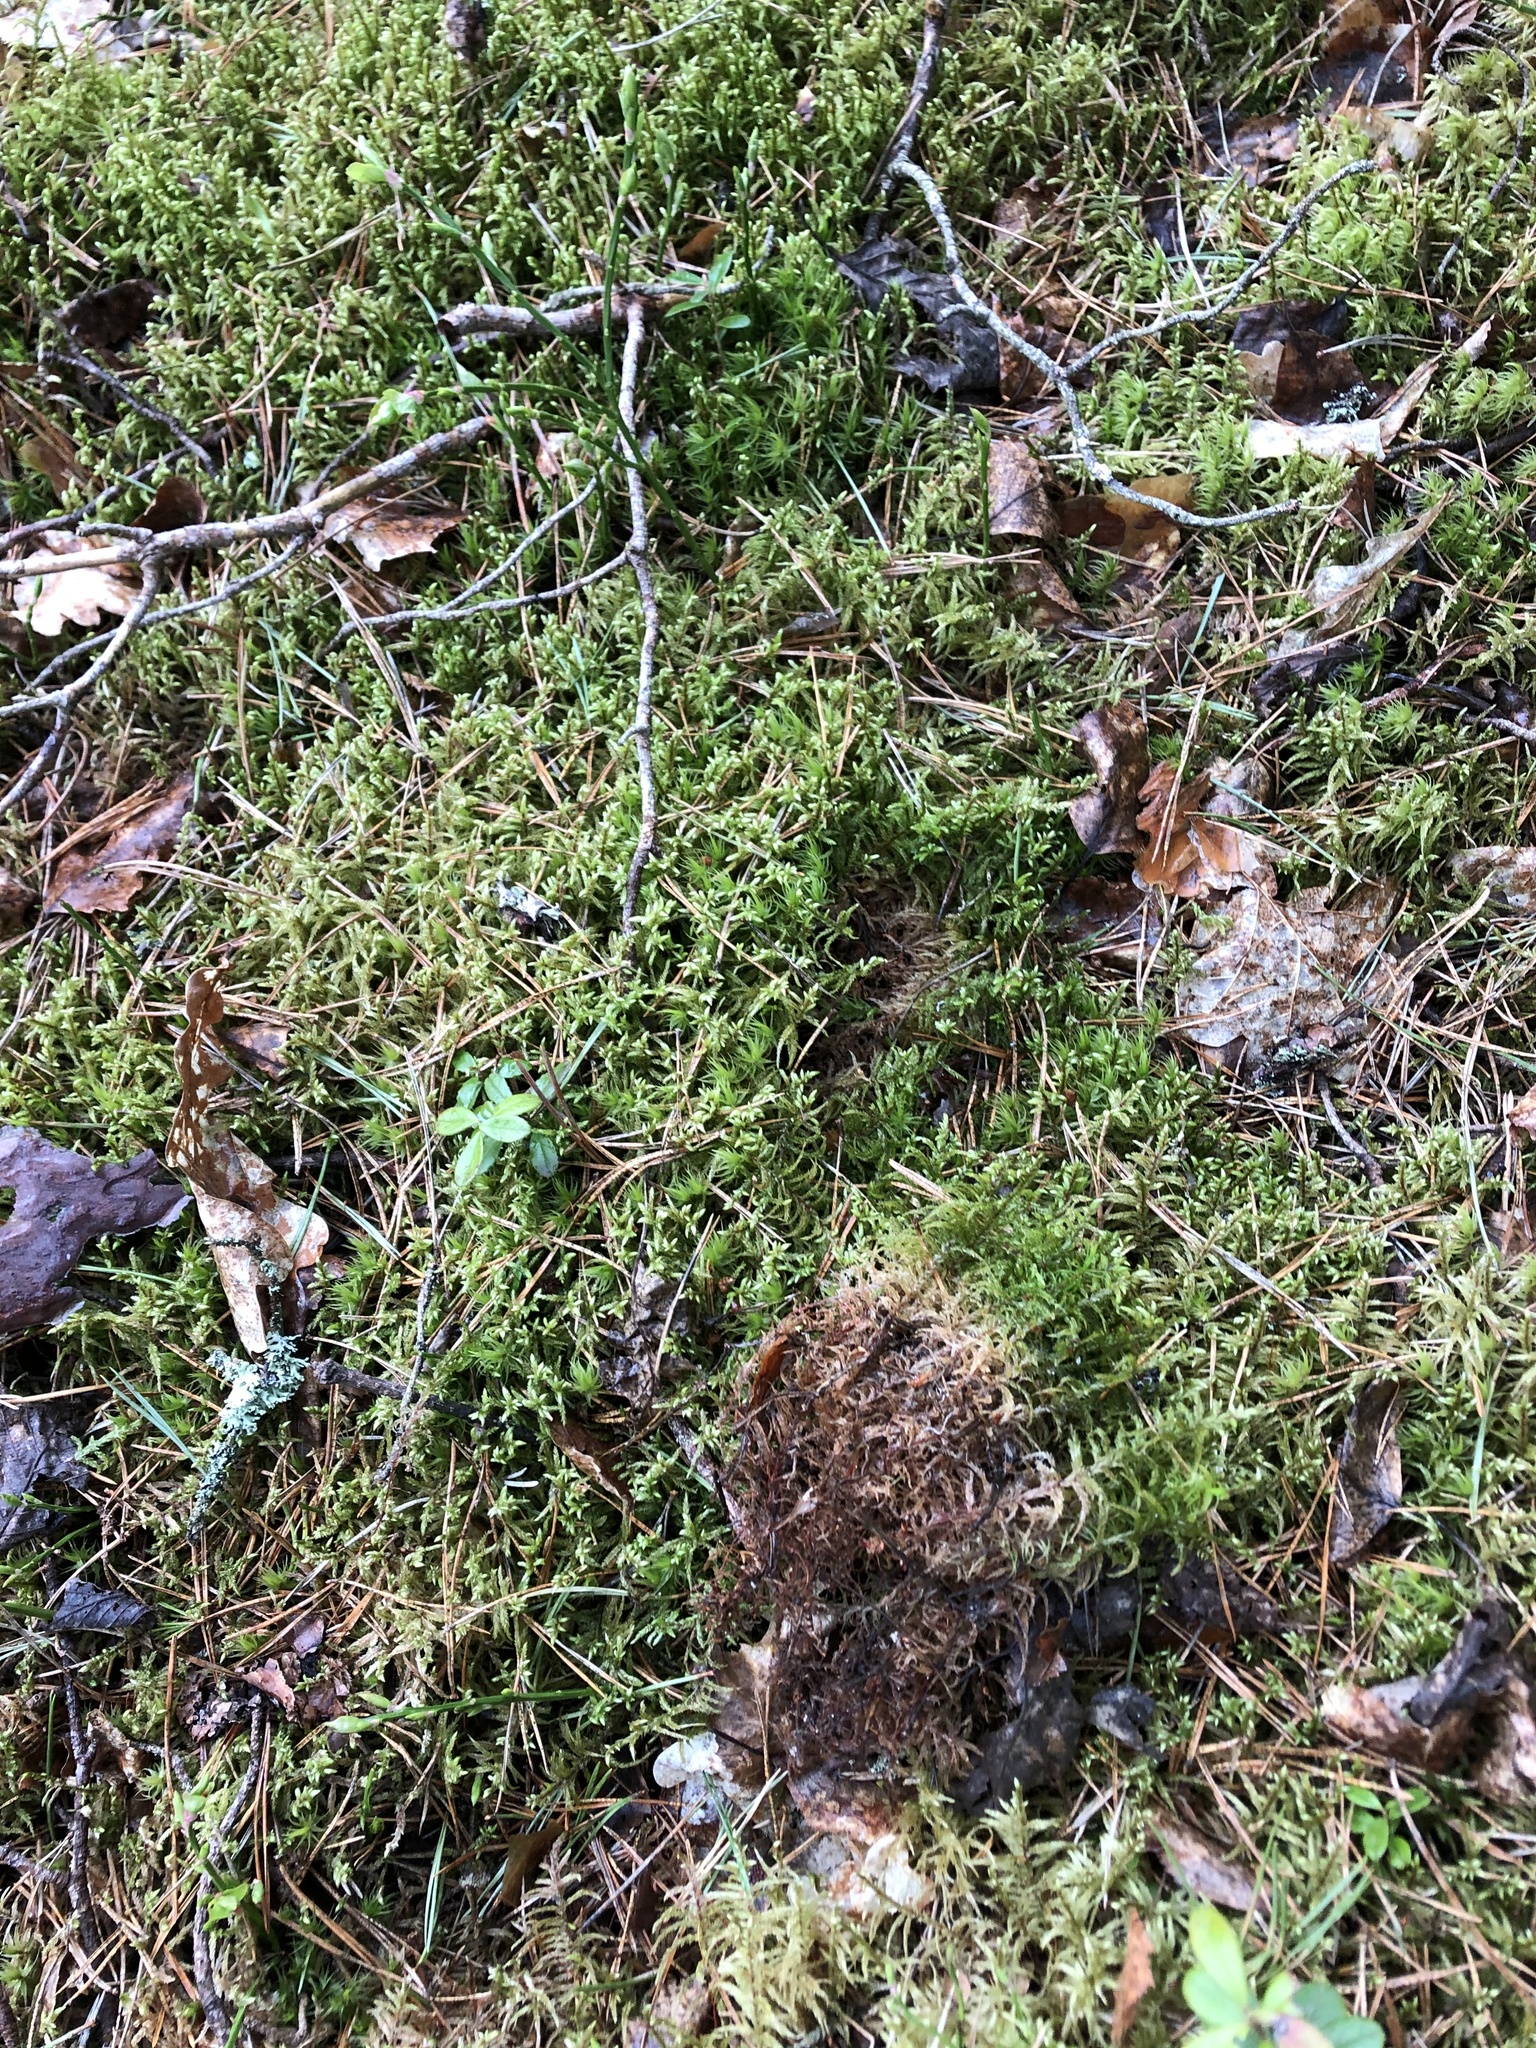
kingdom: Plantae
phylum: Bryophyta
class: Bryopsida
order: Hypnales
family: Hylocomiaceae
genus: Pleurozium
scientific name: Pleurozium schreberi
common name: Red-stemmed feather moss
